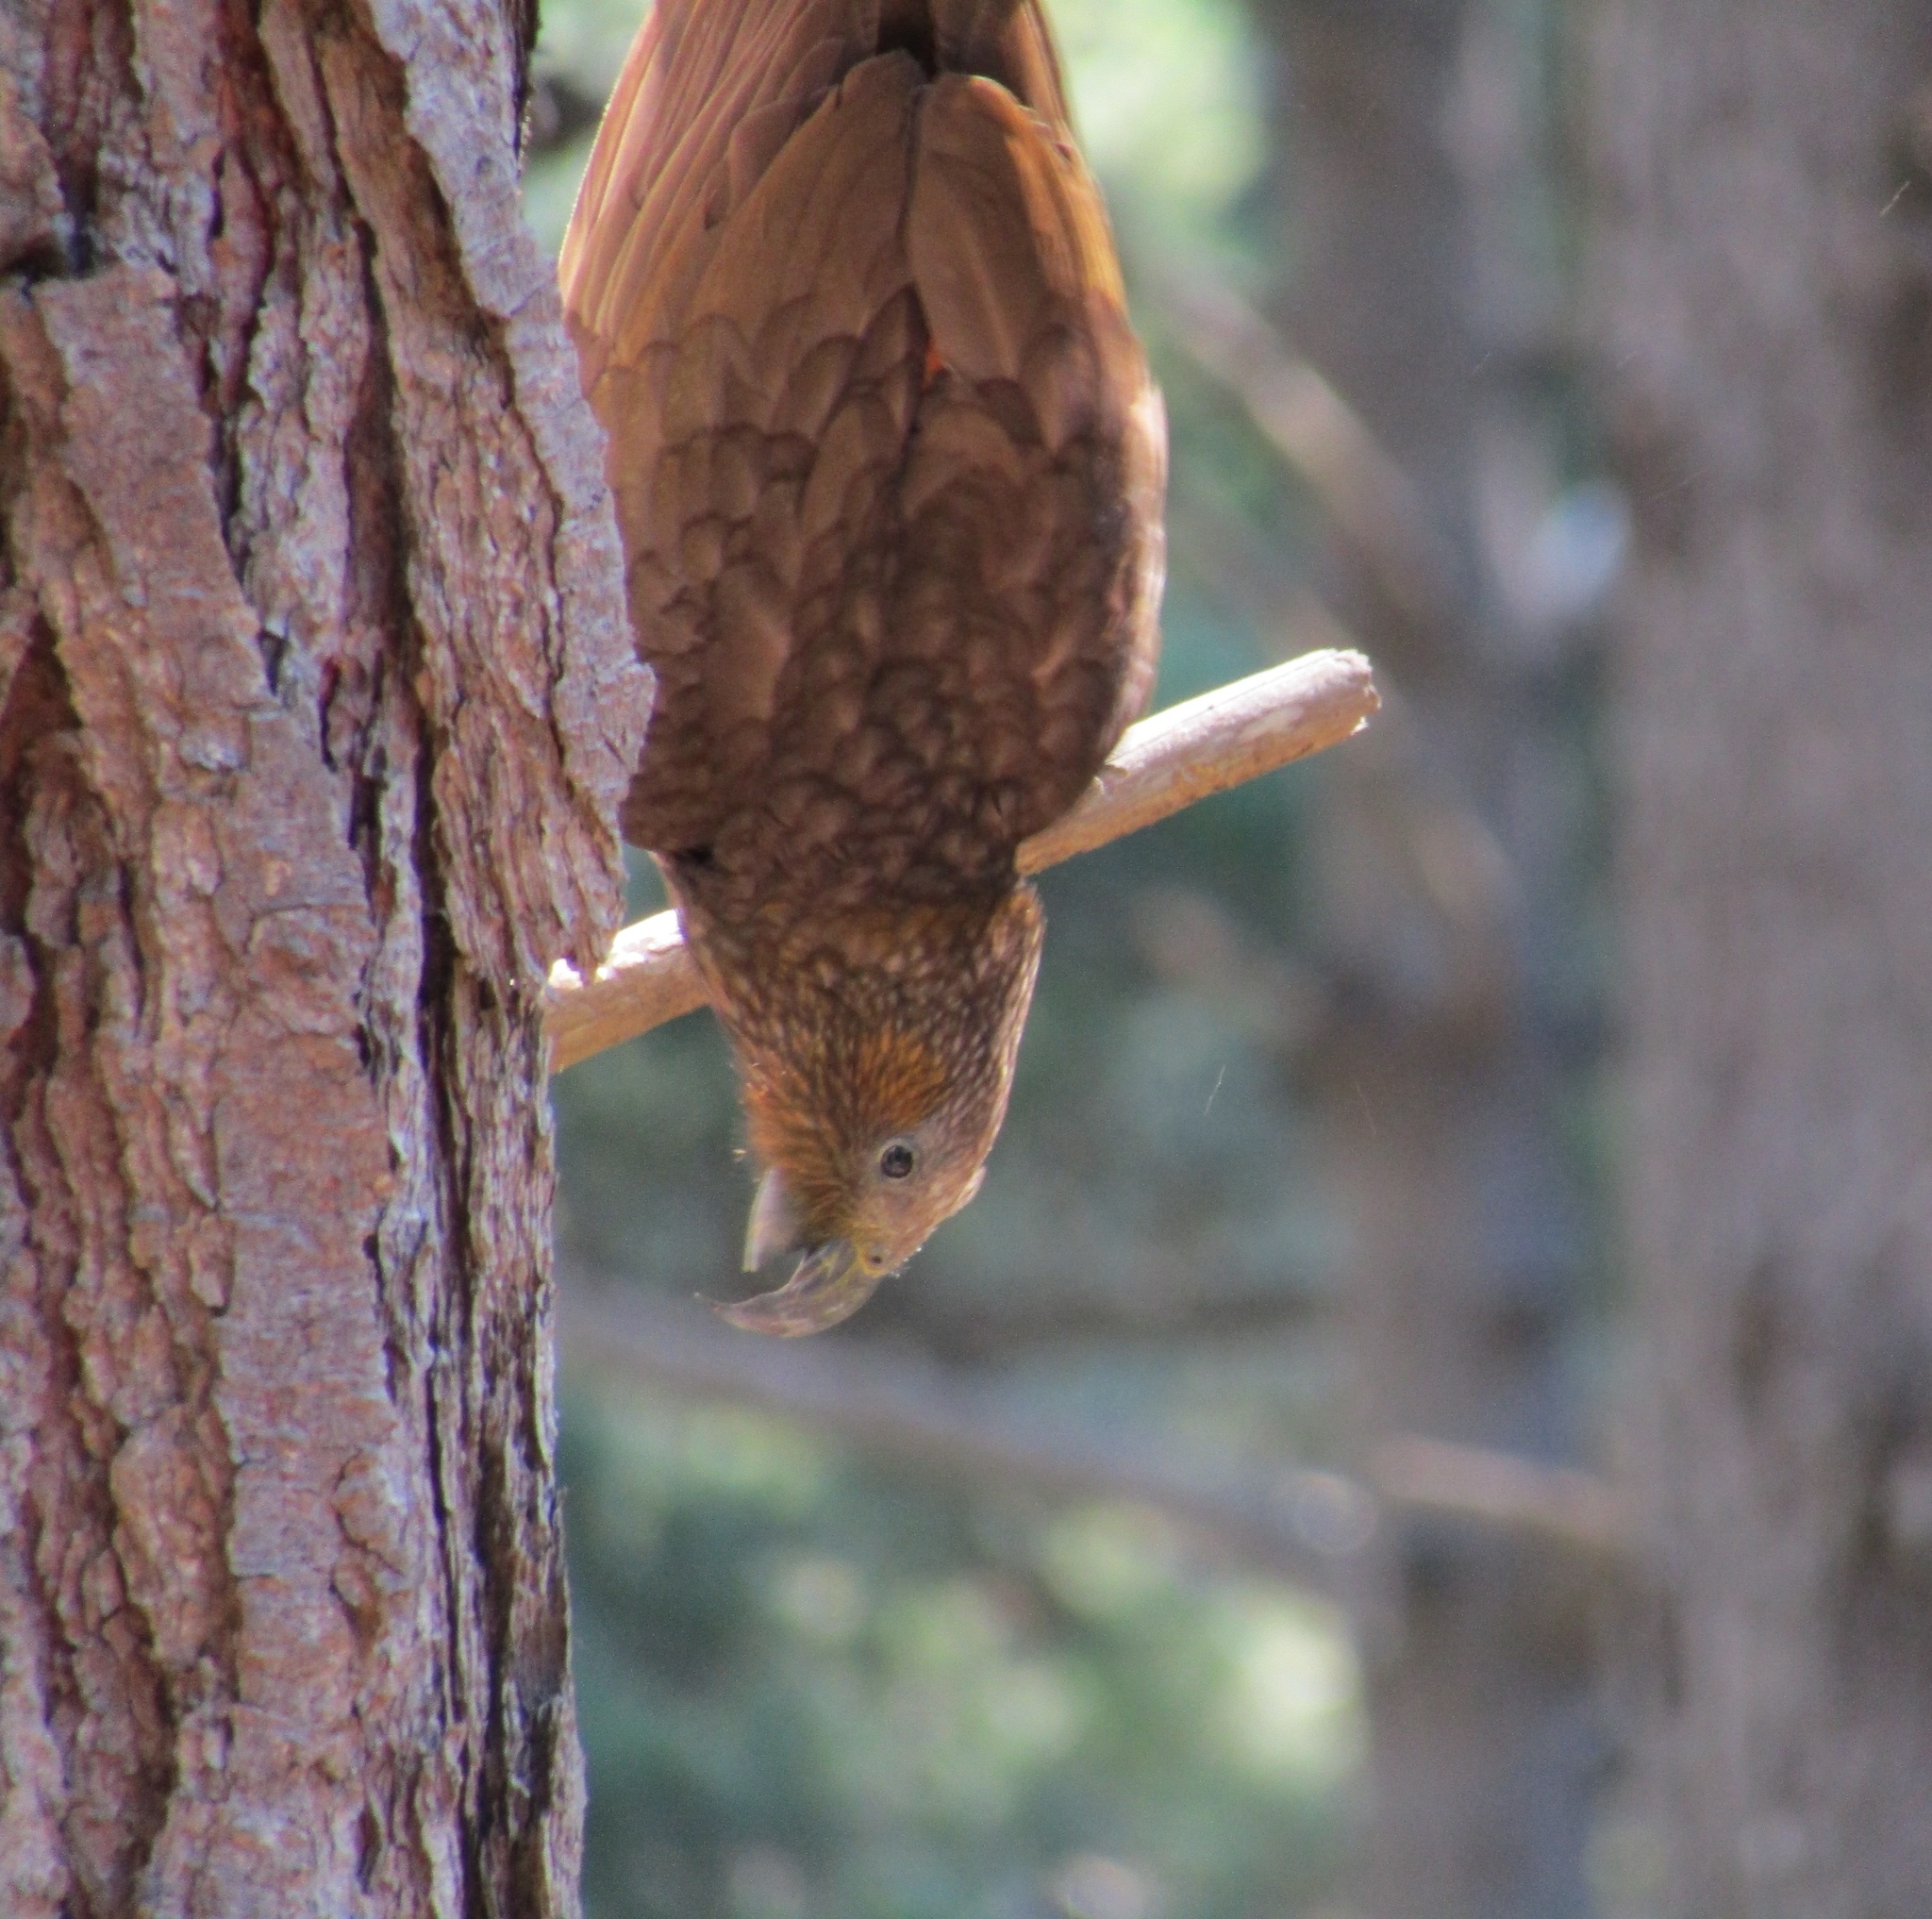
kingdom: Animalia
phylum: Chordata
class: Aves
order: Psittaciformes
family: Psittacidae
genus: Nestor
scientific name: Nestor meridionalis
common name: New zealand kaka
